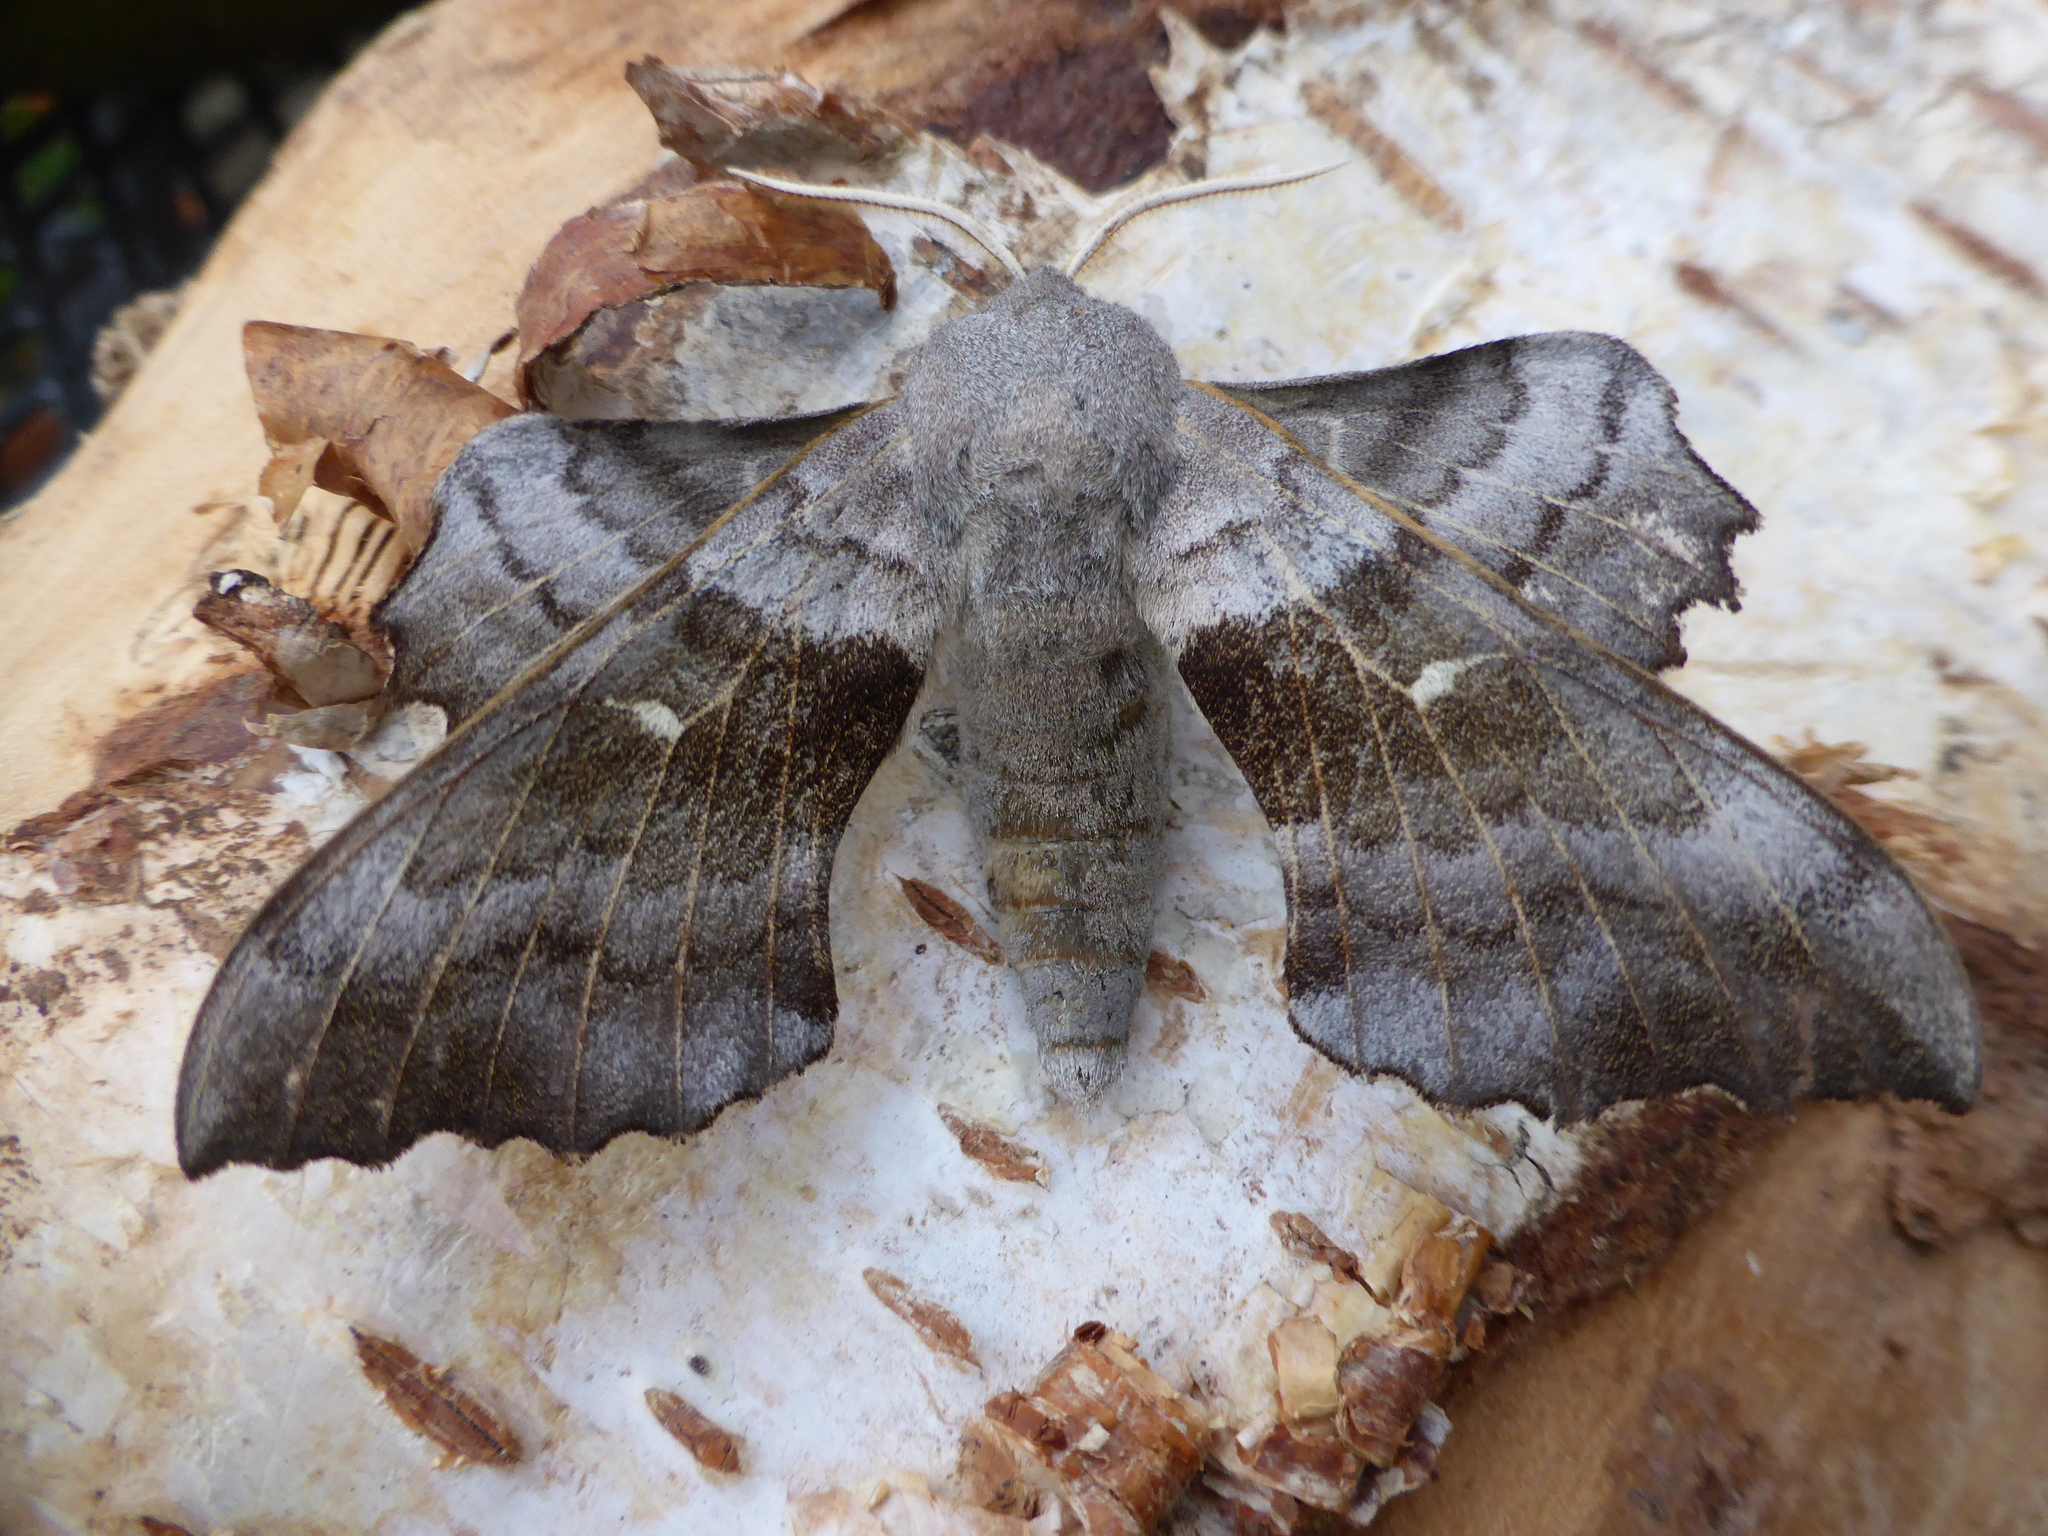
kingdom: Animalia
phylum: Arthropoda
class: Insecta
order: Lepidoptera
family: Sphingidae
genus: Laothoe
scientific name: Laothoe populi
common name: Poplar hawk-moth
